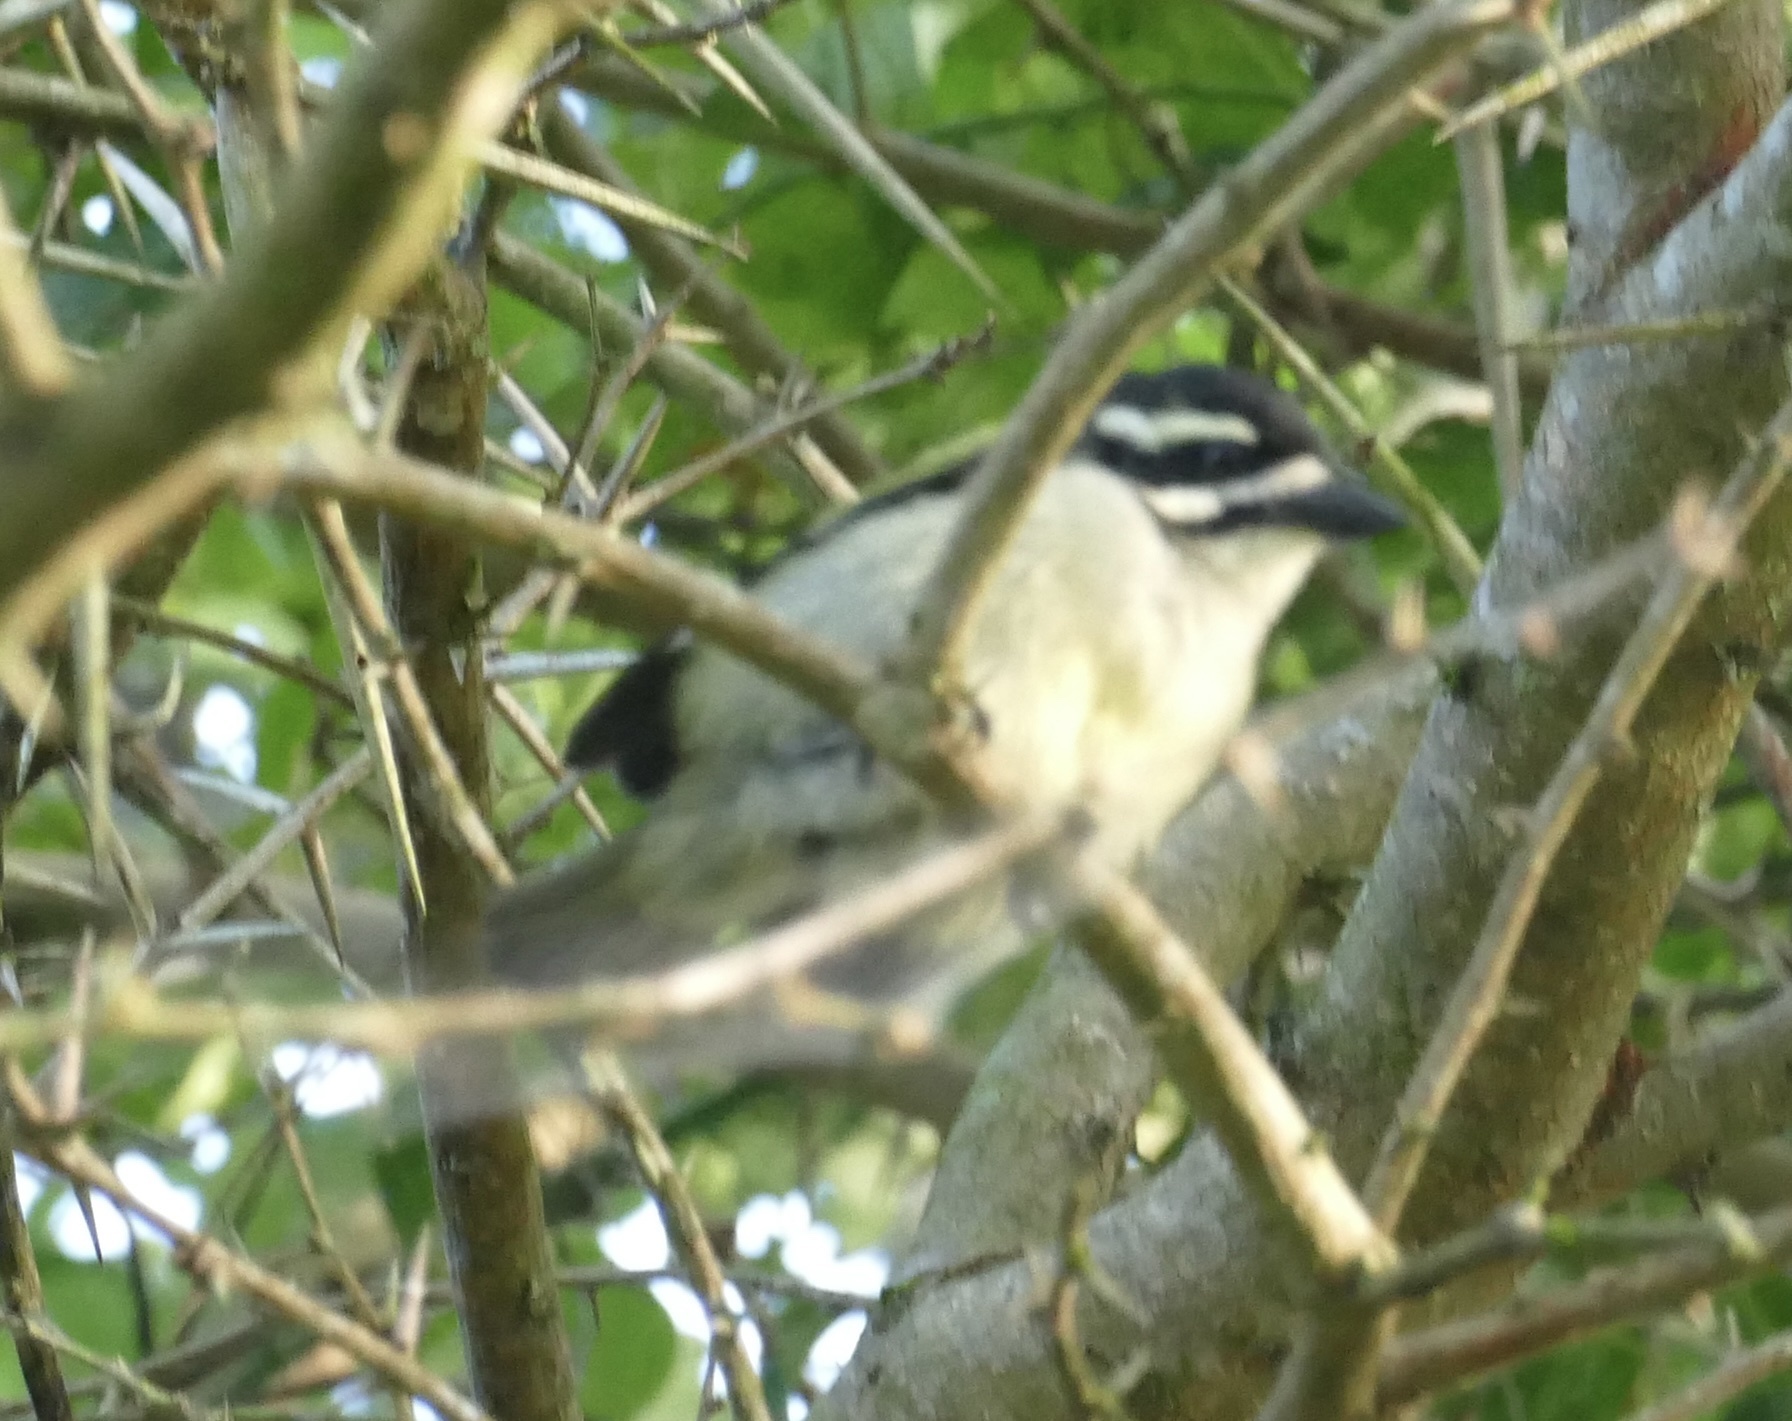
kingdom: Animalia
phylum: Chordata
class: Aves
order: Piciformes
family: Lybiidae
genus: Pogoniulus
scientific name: Pogoniulus bilineatus
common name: Yellow-rumped tinkerbird
